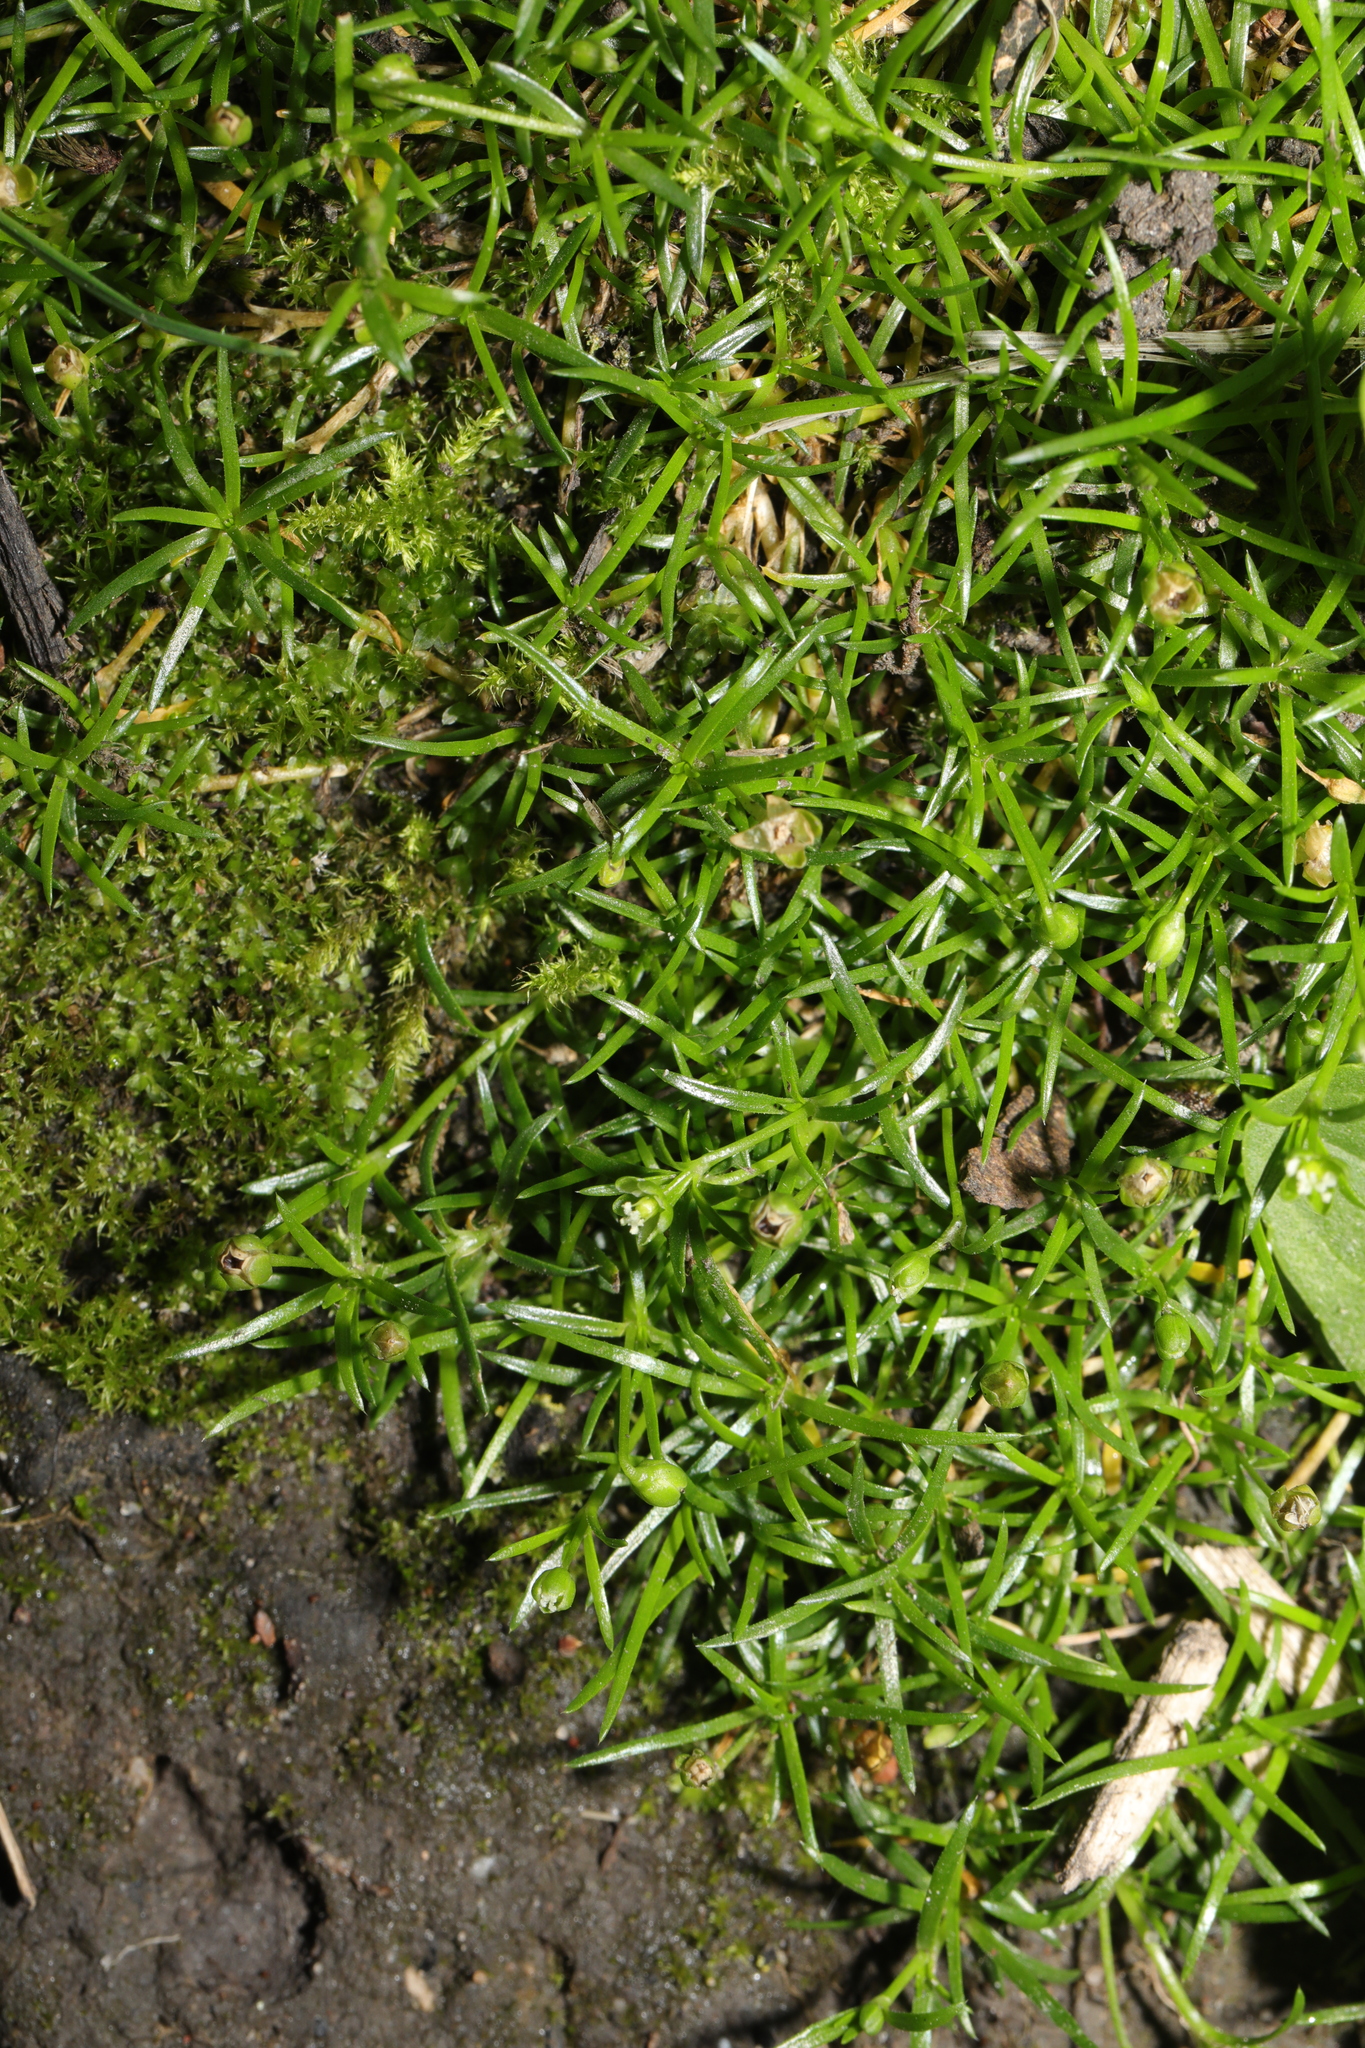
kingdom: Plantae
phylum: Tracheophyta
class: Magnoliopsida
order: Caryophyllales
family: Caryophyllaceae
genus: Sagina
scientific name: Sagina procumbens
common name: Procumbent pearlwort
